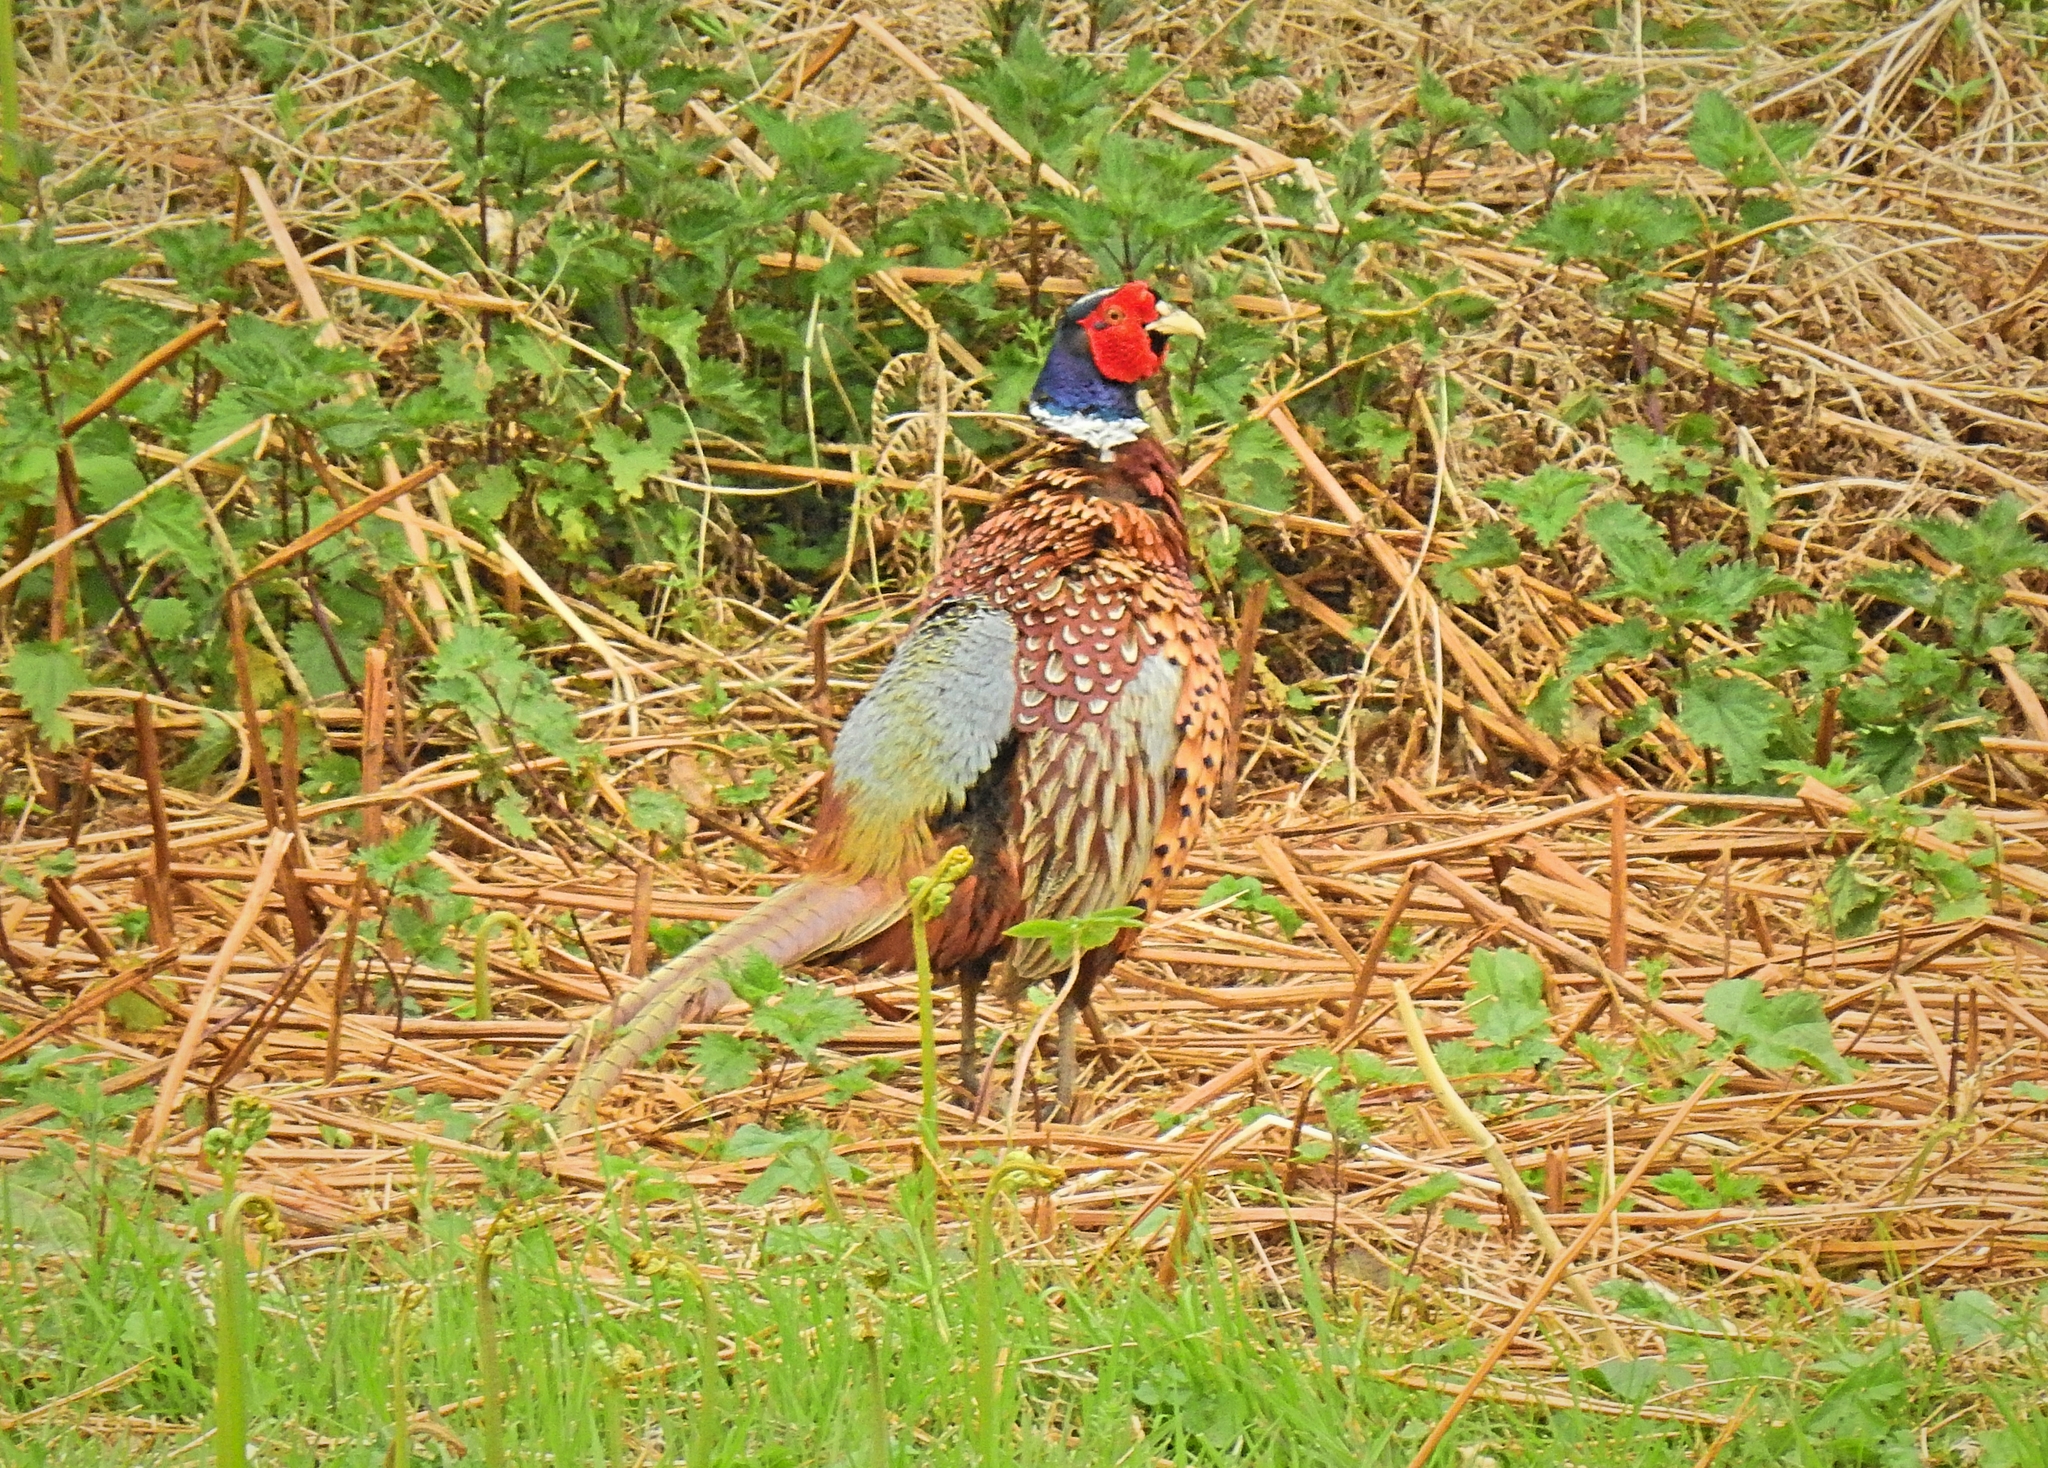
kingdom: Animalia
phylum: Chordata
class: Aves
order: Galliformes
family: Phasianidae
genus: Phasianus
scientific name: Phasianus colchicus
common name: Common pheasant
